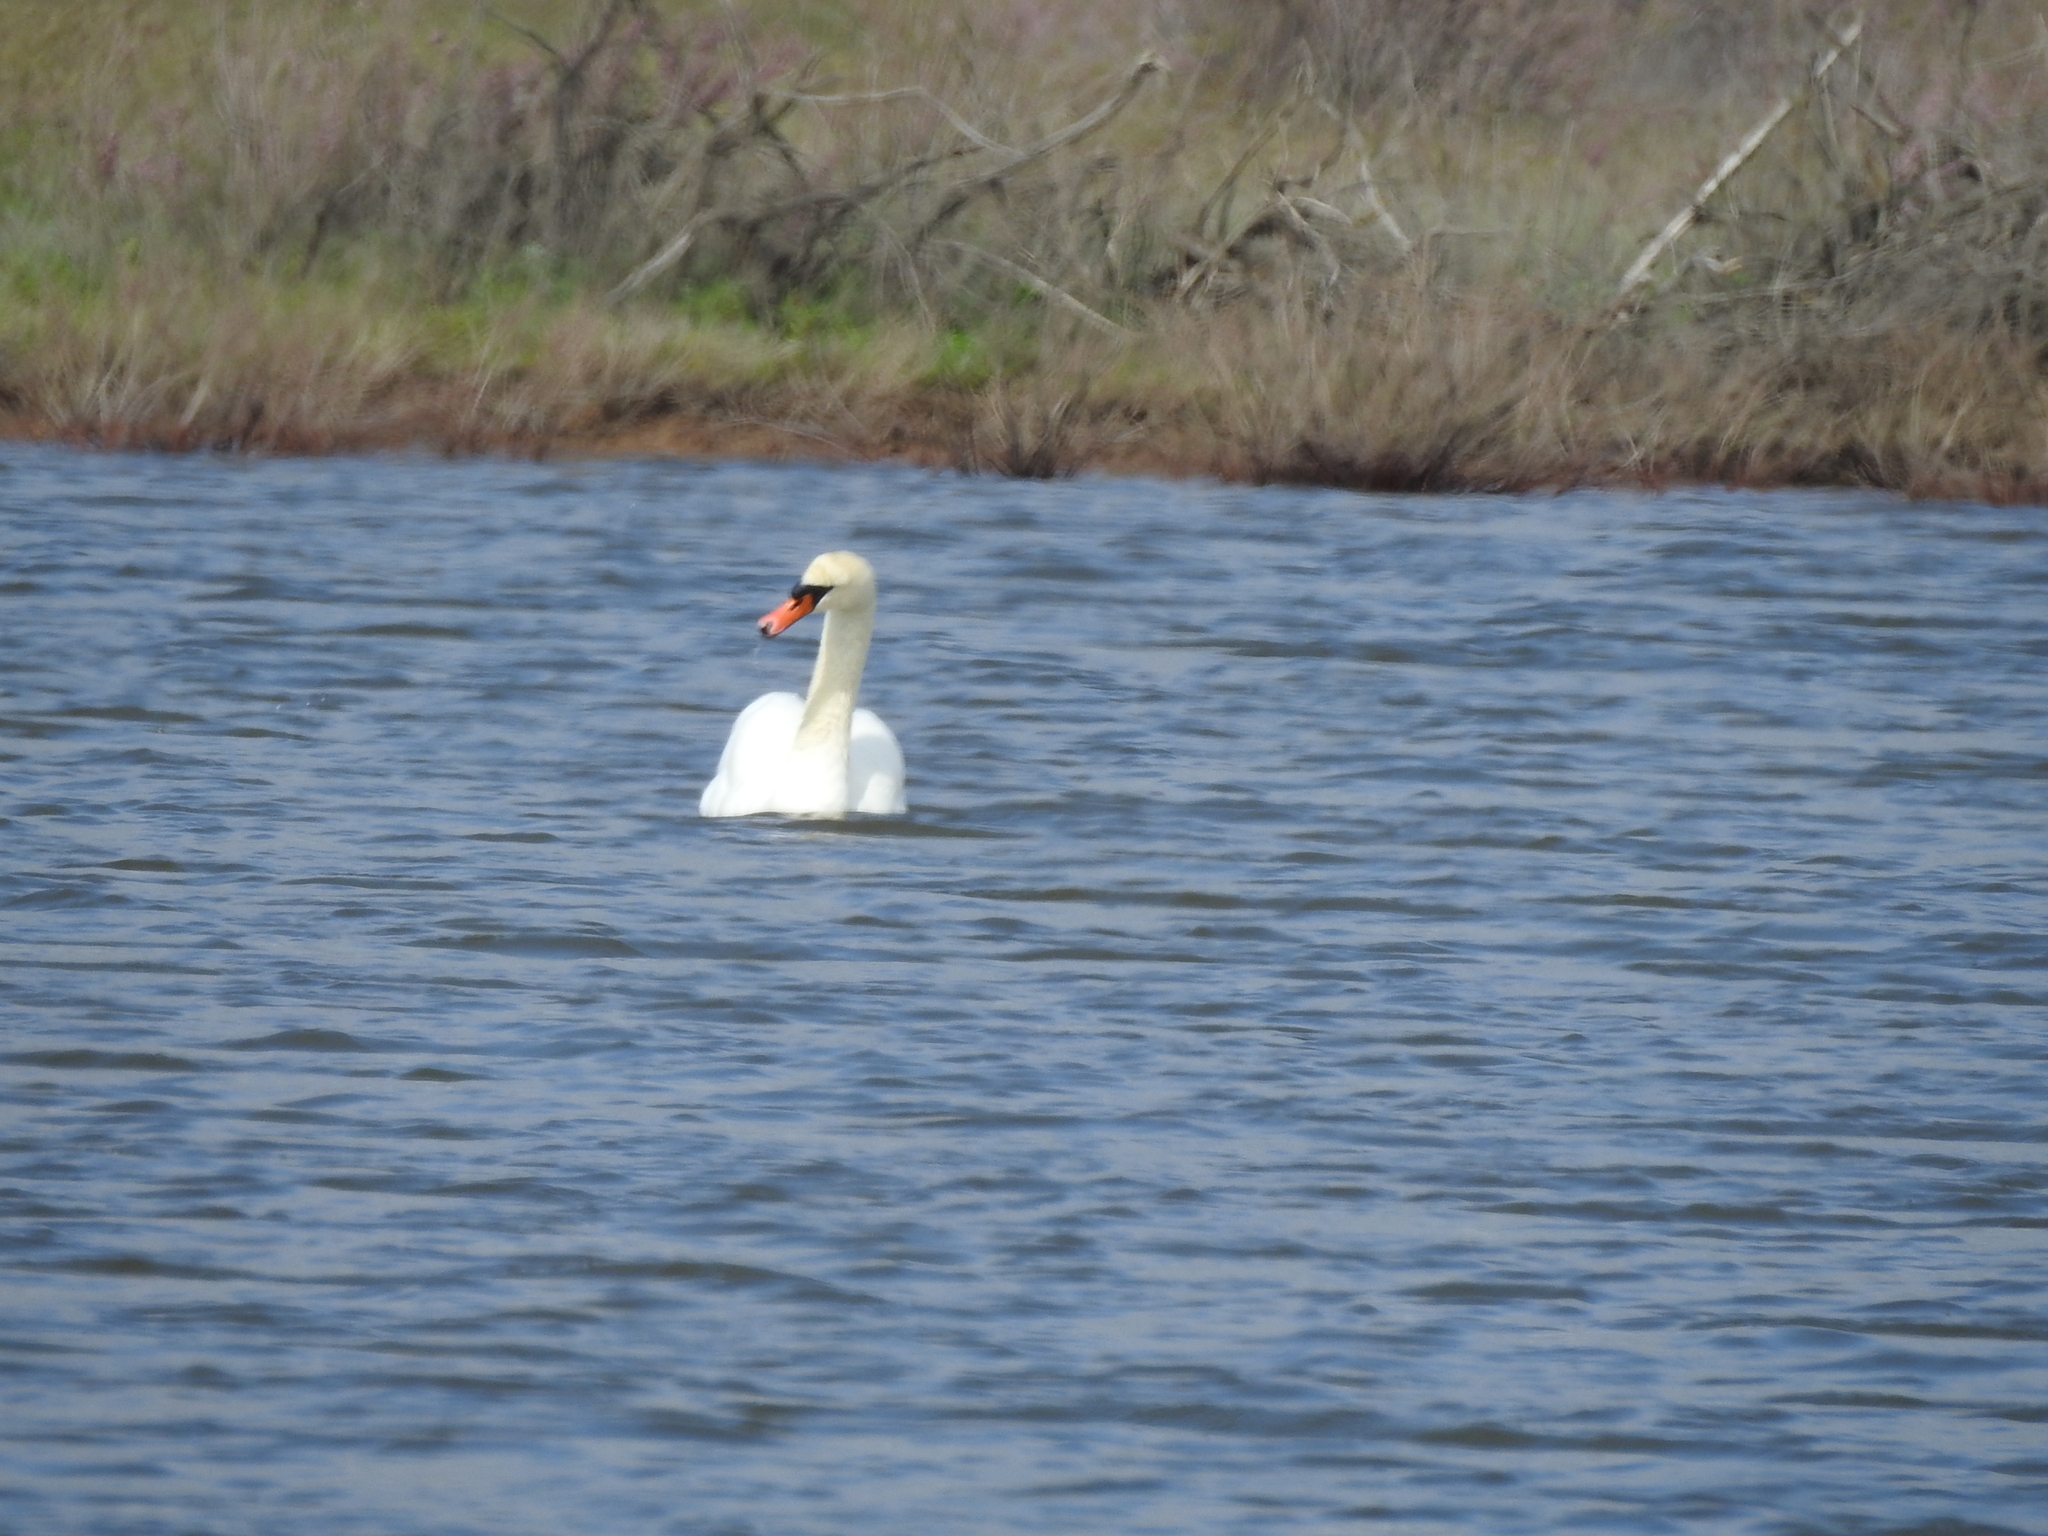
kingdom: Animalia
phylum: Chordata
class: Aves
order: Anseriformes
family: Anatidae
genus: Cygnus
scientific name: Cygnus olor
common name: Mute swan
